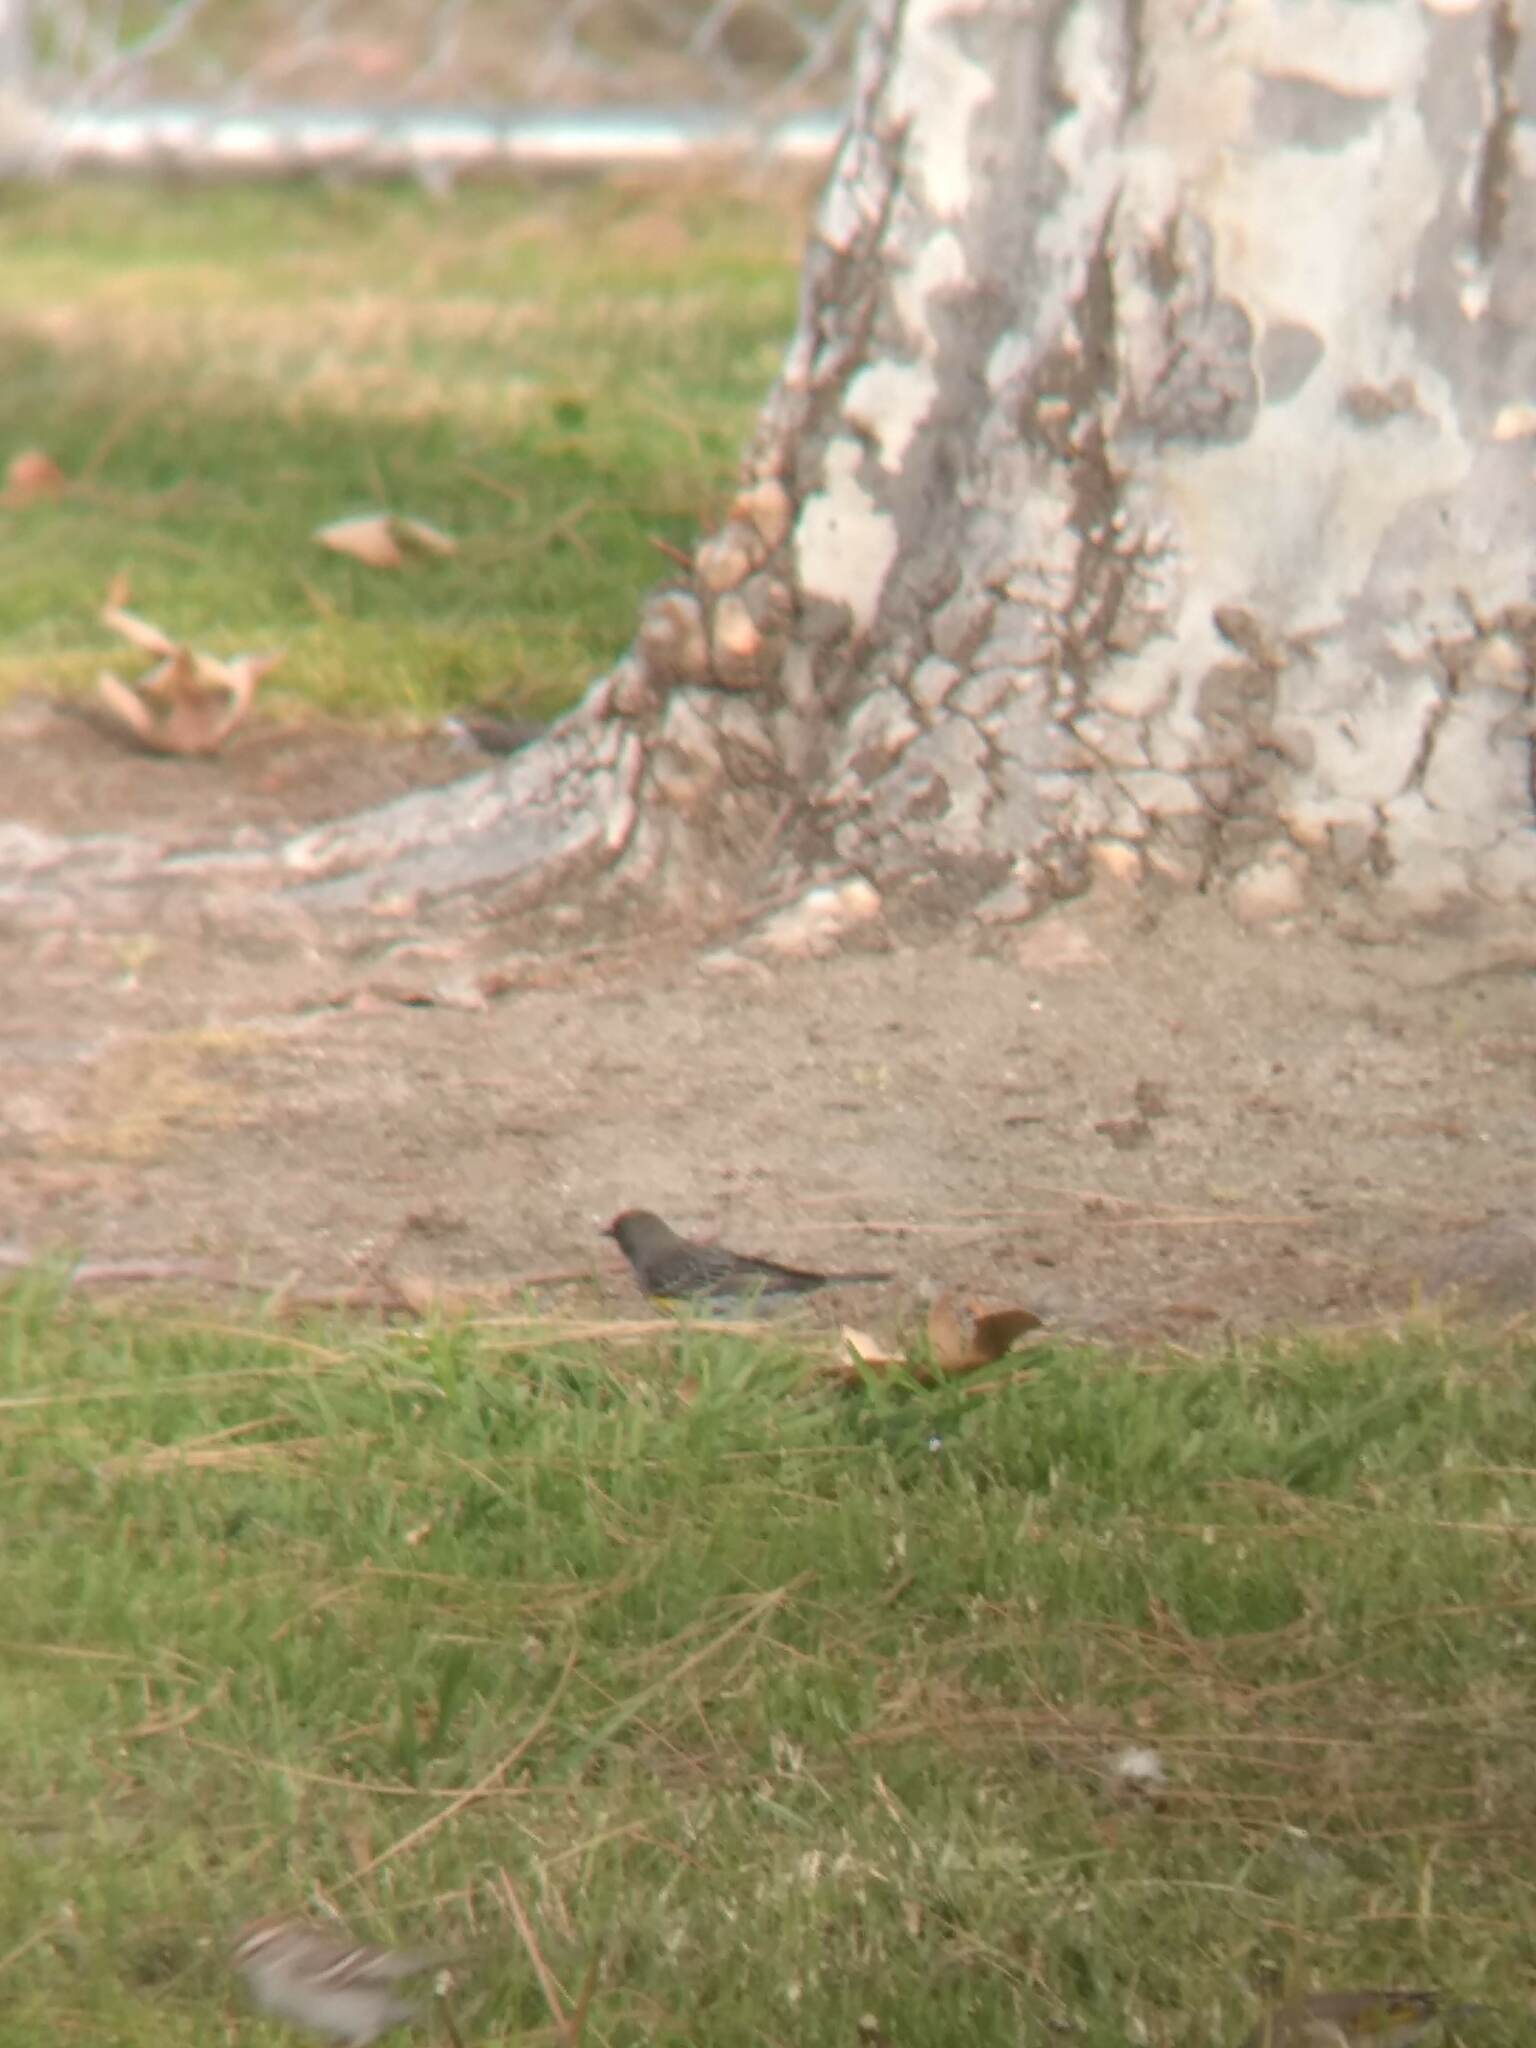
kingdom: Animalia
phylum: Chordata
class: Aves
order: Passeriformes
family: Parulidae
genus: Setophaga
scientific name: Setophaga coronata
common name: Myrtle warbler
